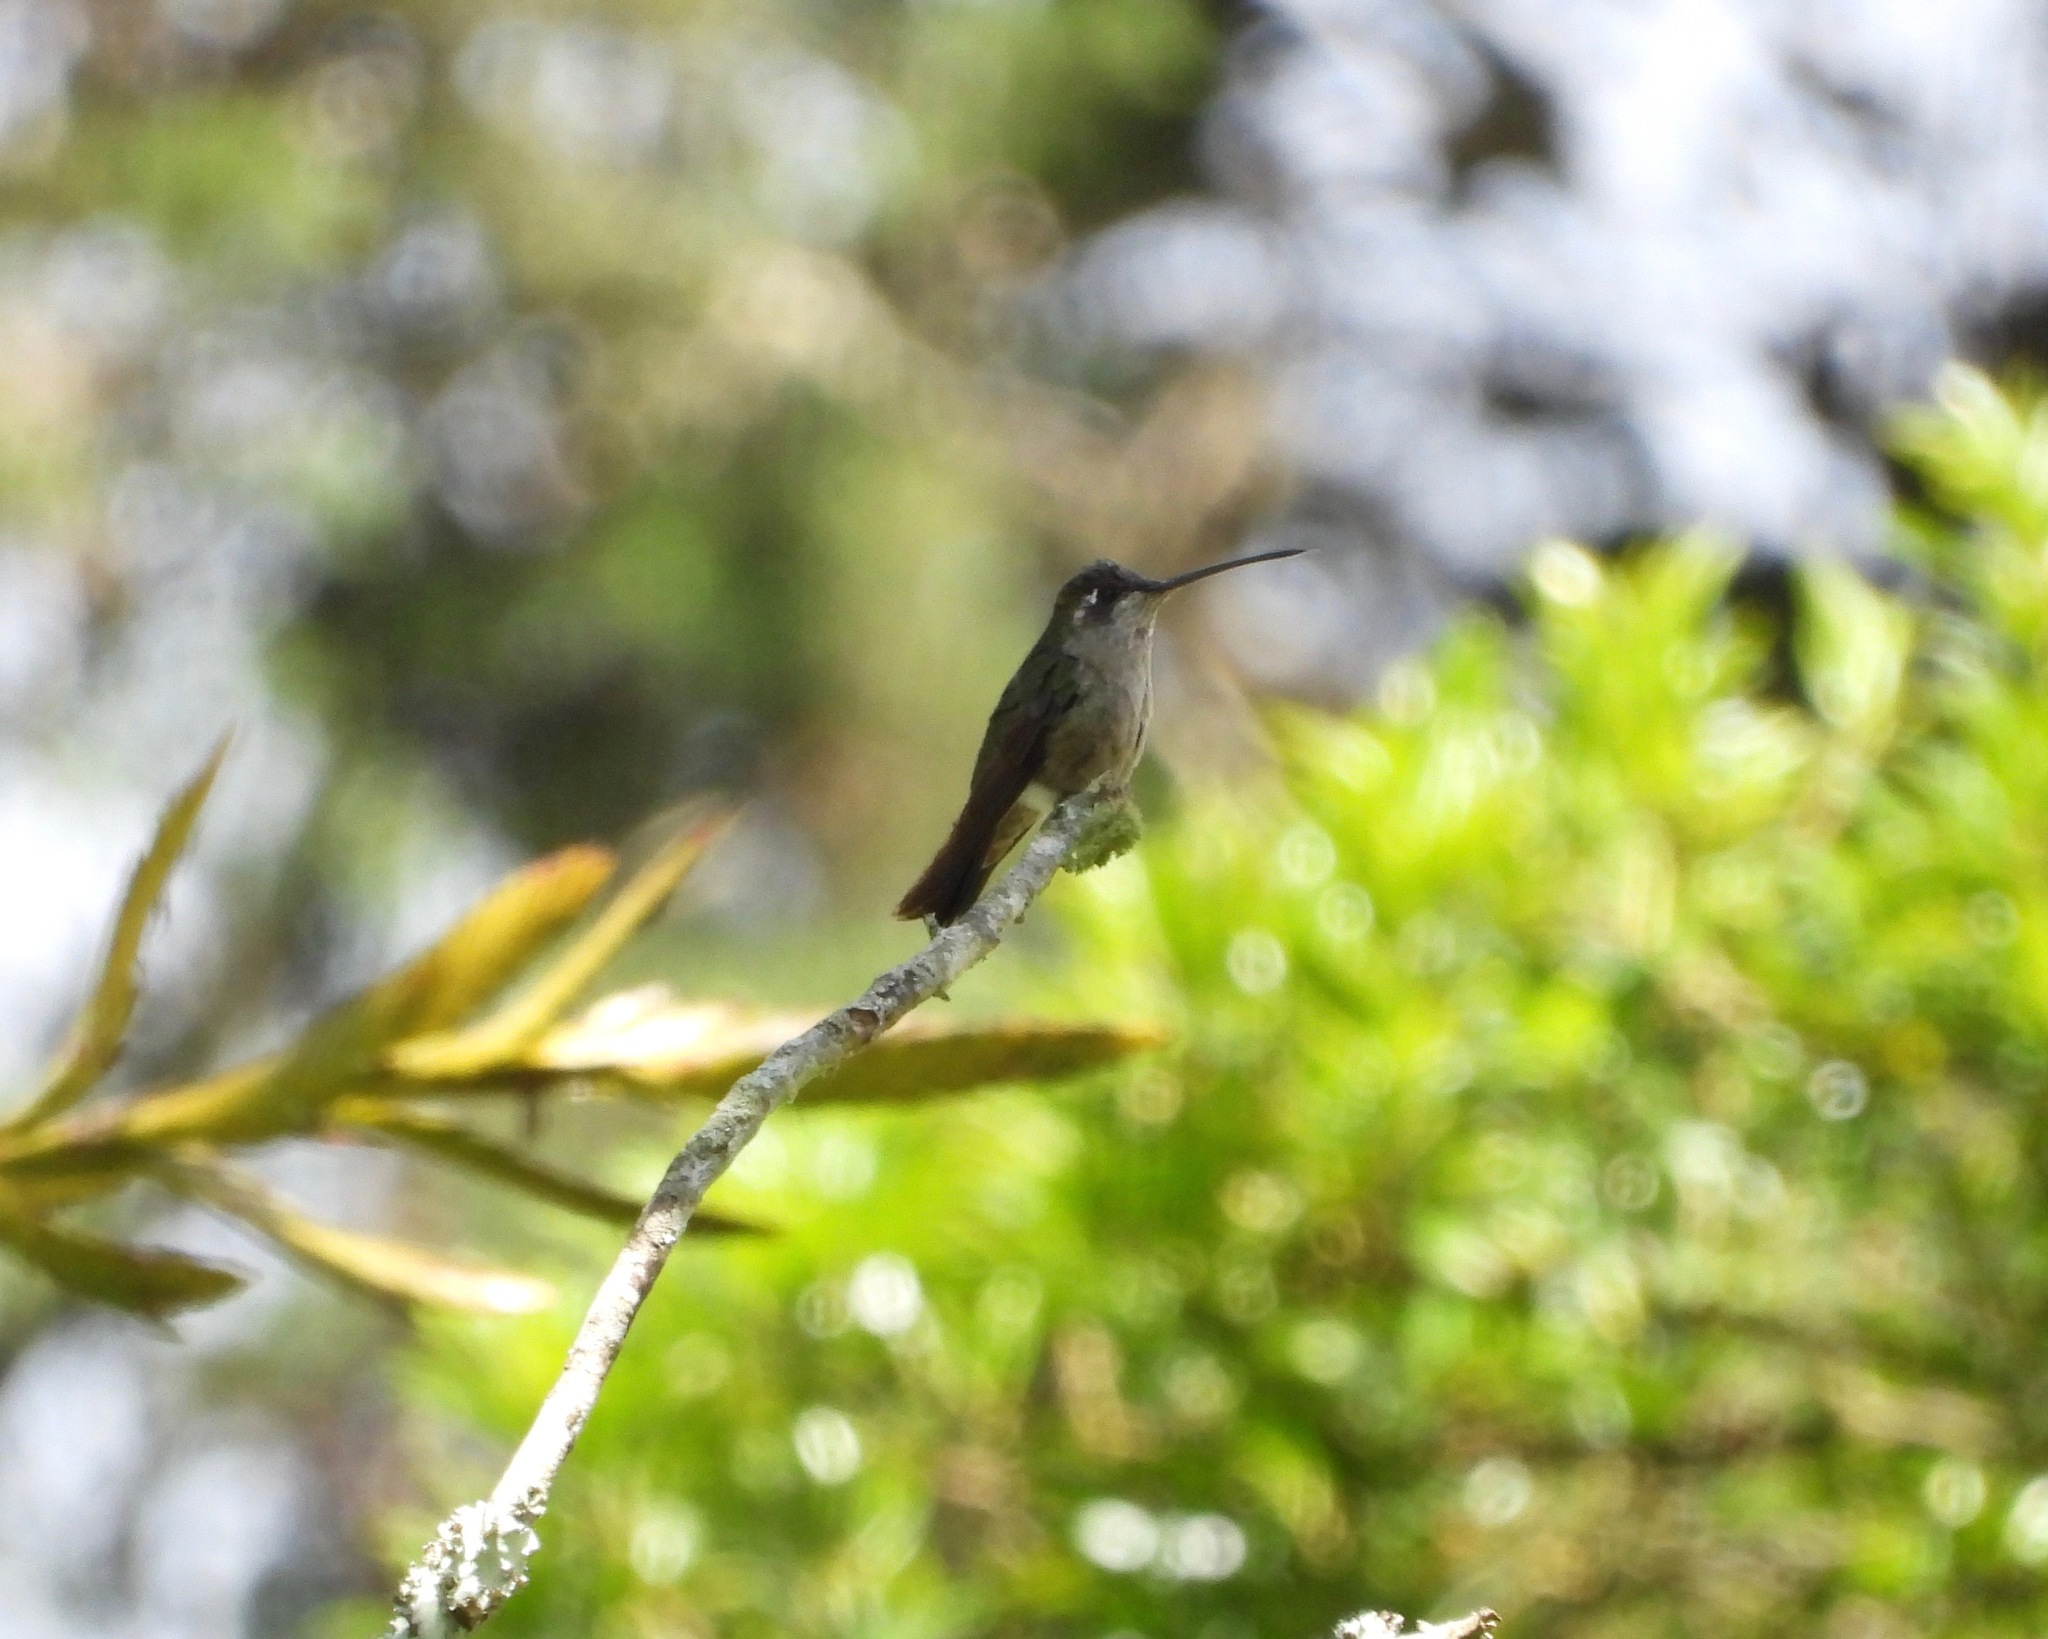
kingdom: Animalia
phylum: Chordata
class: Aves
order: Apodiformes
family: Trochilidae
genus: Eugenes
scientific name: Eugenes fulgens
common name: Magnificent hummingbird
